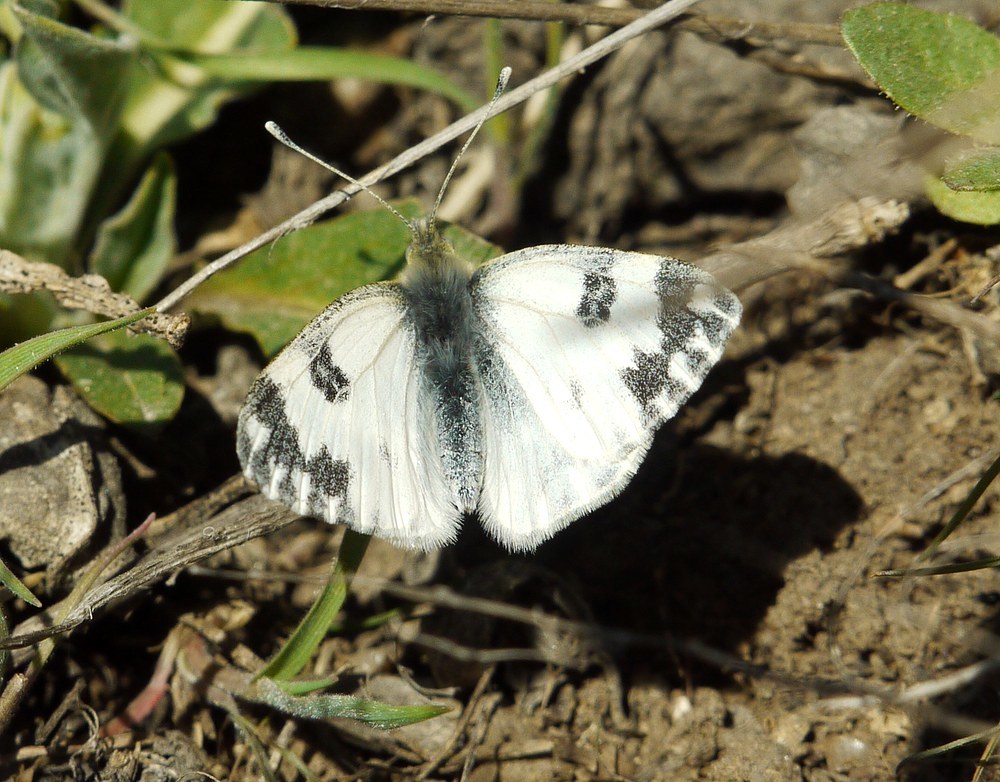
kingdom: Animalia
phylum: Arthropoda
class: Insecta
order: Lepidoptera
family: Pieridae
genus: Pontia
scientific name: Pontia edusa
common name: Eastern bath white
